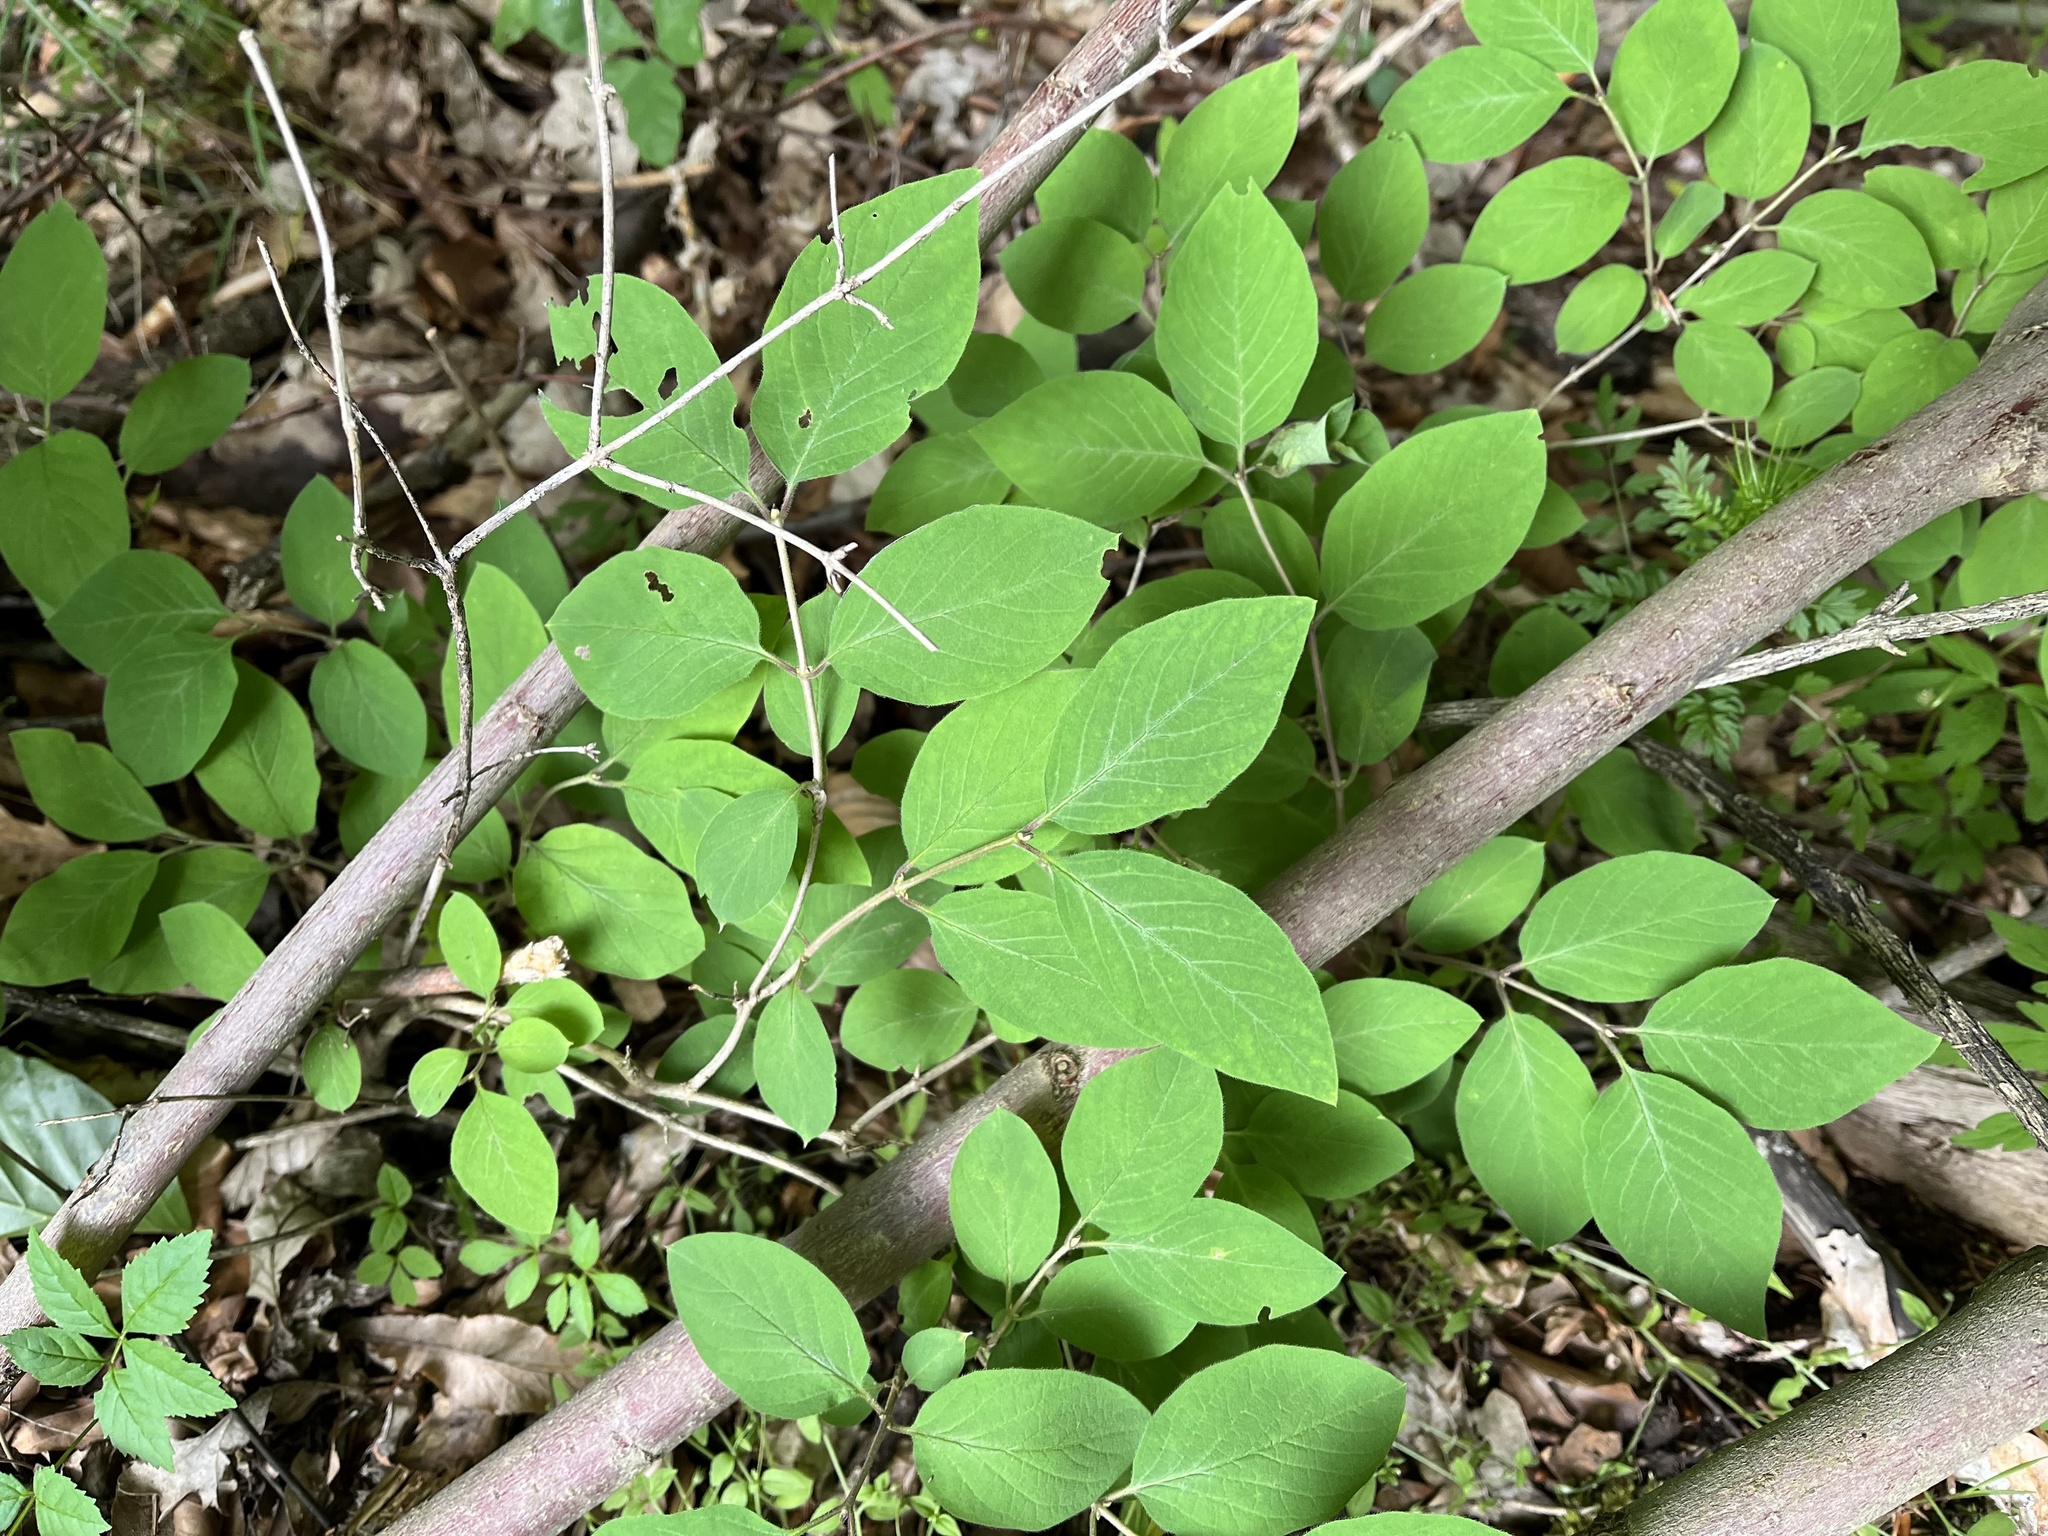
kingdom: Plantae
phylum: Tracheophyta
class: Magnoliopsida
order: Dipsacales
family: Caprifoliaceae
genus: Lonicera
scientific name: Lonicera xylosteum
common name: Fly honeysuckle
